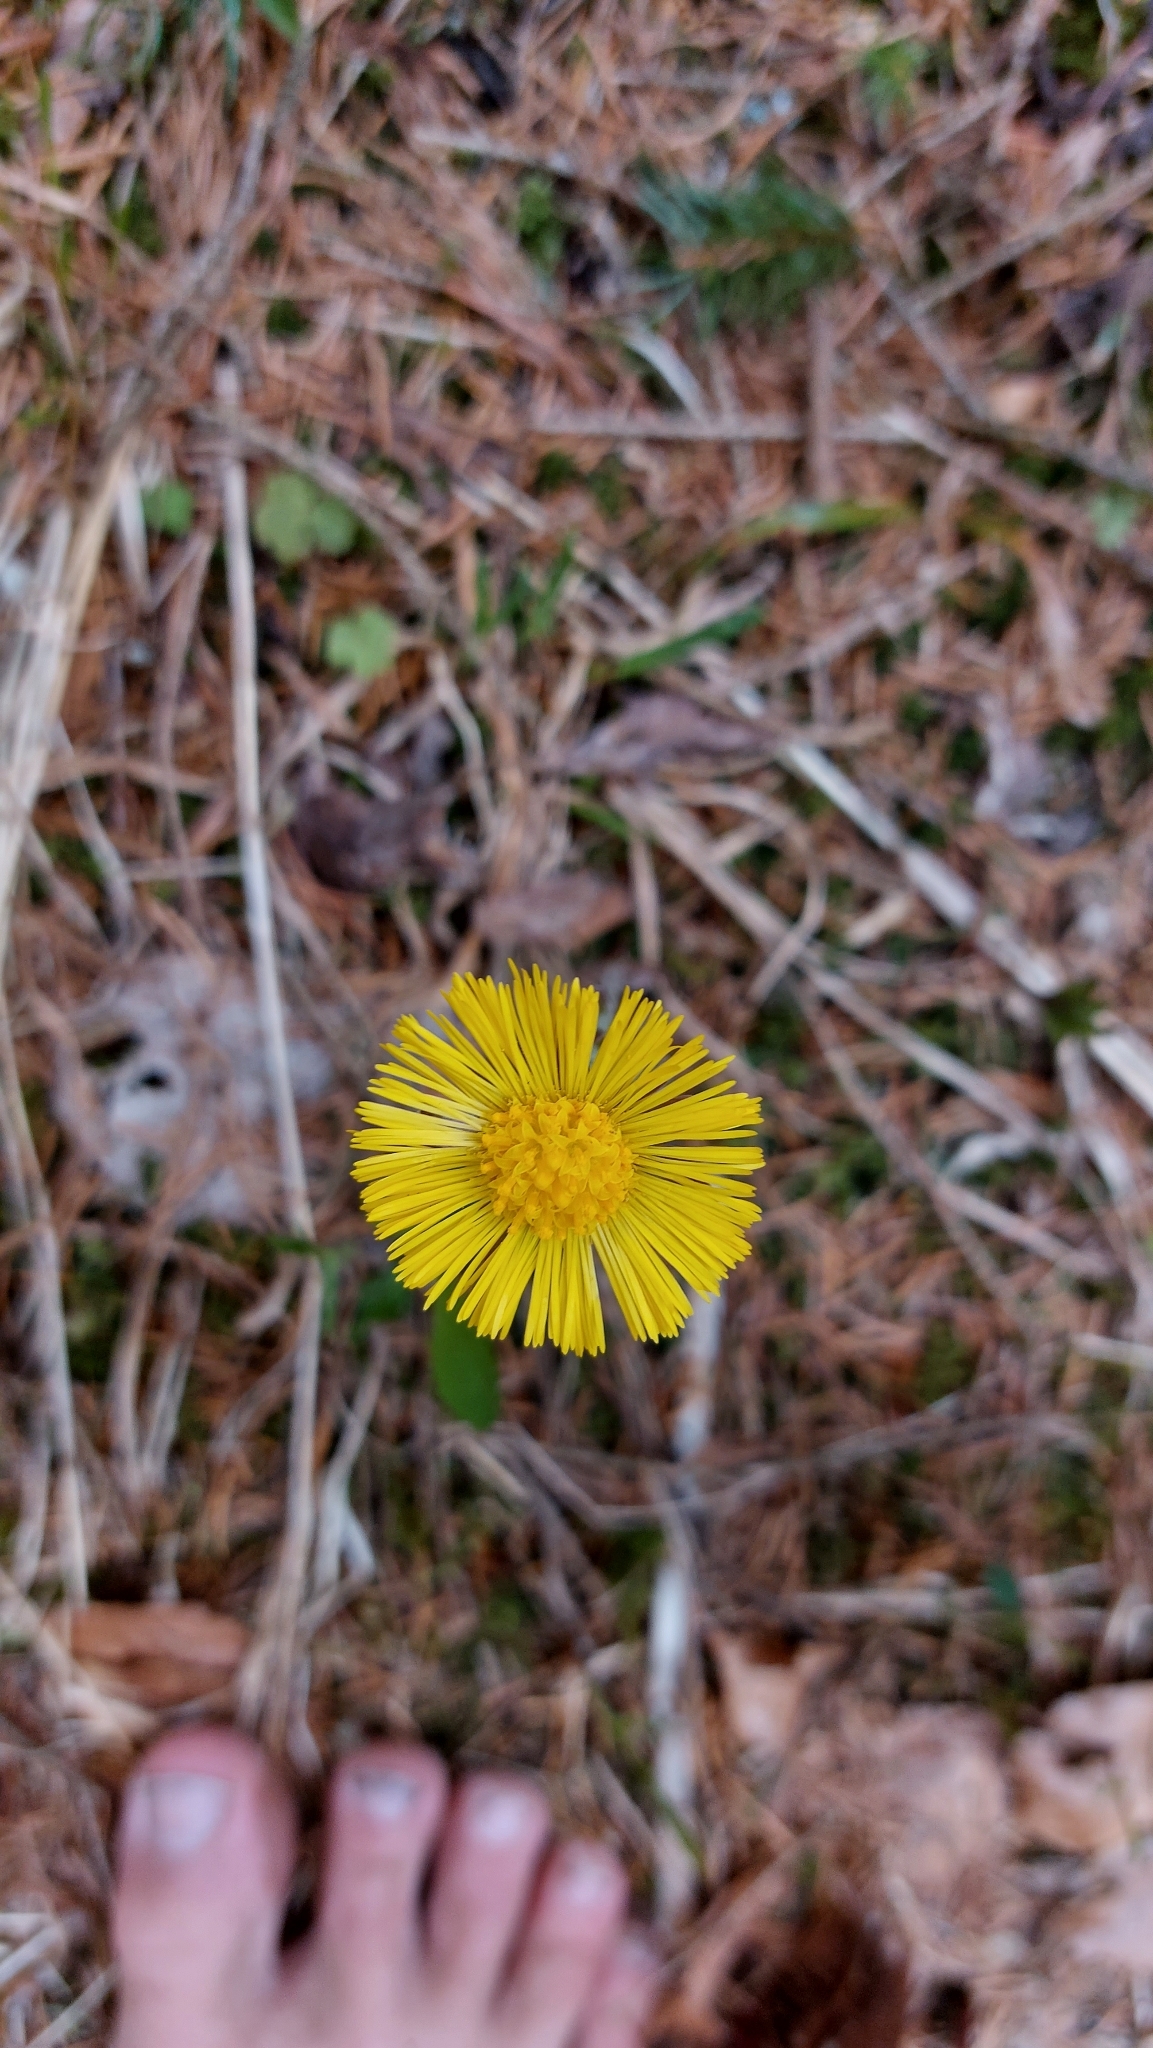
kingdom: Plantae
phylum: Tracheophyta
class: Magnoliopsida
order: Asterales
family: Asteraceae
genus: Tussilago
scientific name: Tussilago farfara
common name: Coltsfoot
